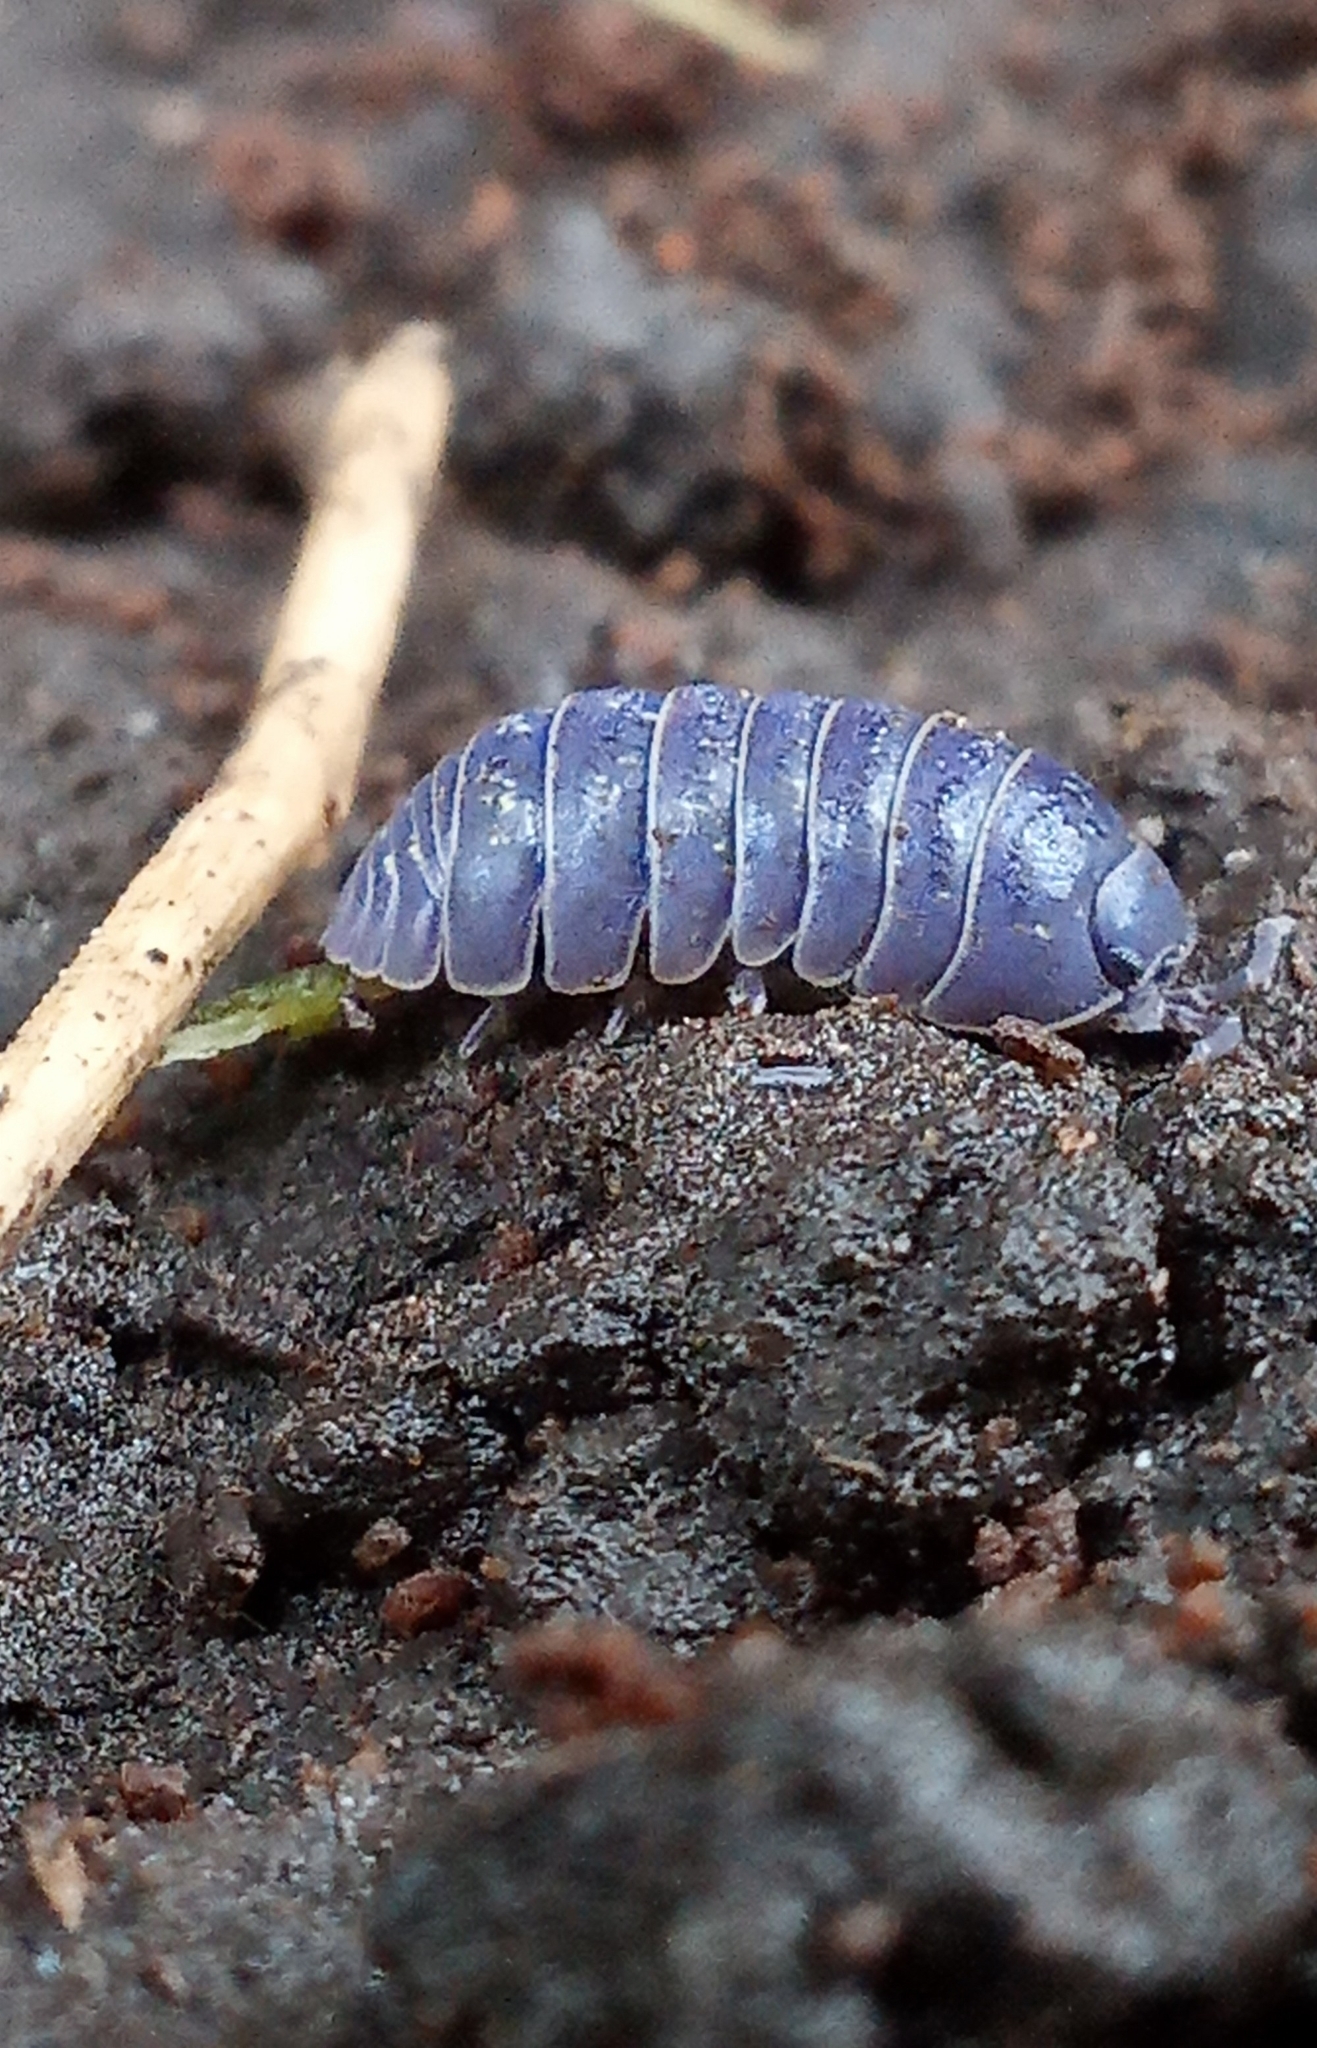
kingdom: Viruses
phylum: Nucleocytoviricota
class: Megaviricetes
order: Pimascovirales
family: Iridoviridae
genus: Iridovirus
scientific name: Iridovirus Invertebrate iridescent virus 31
